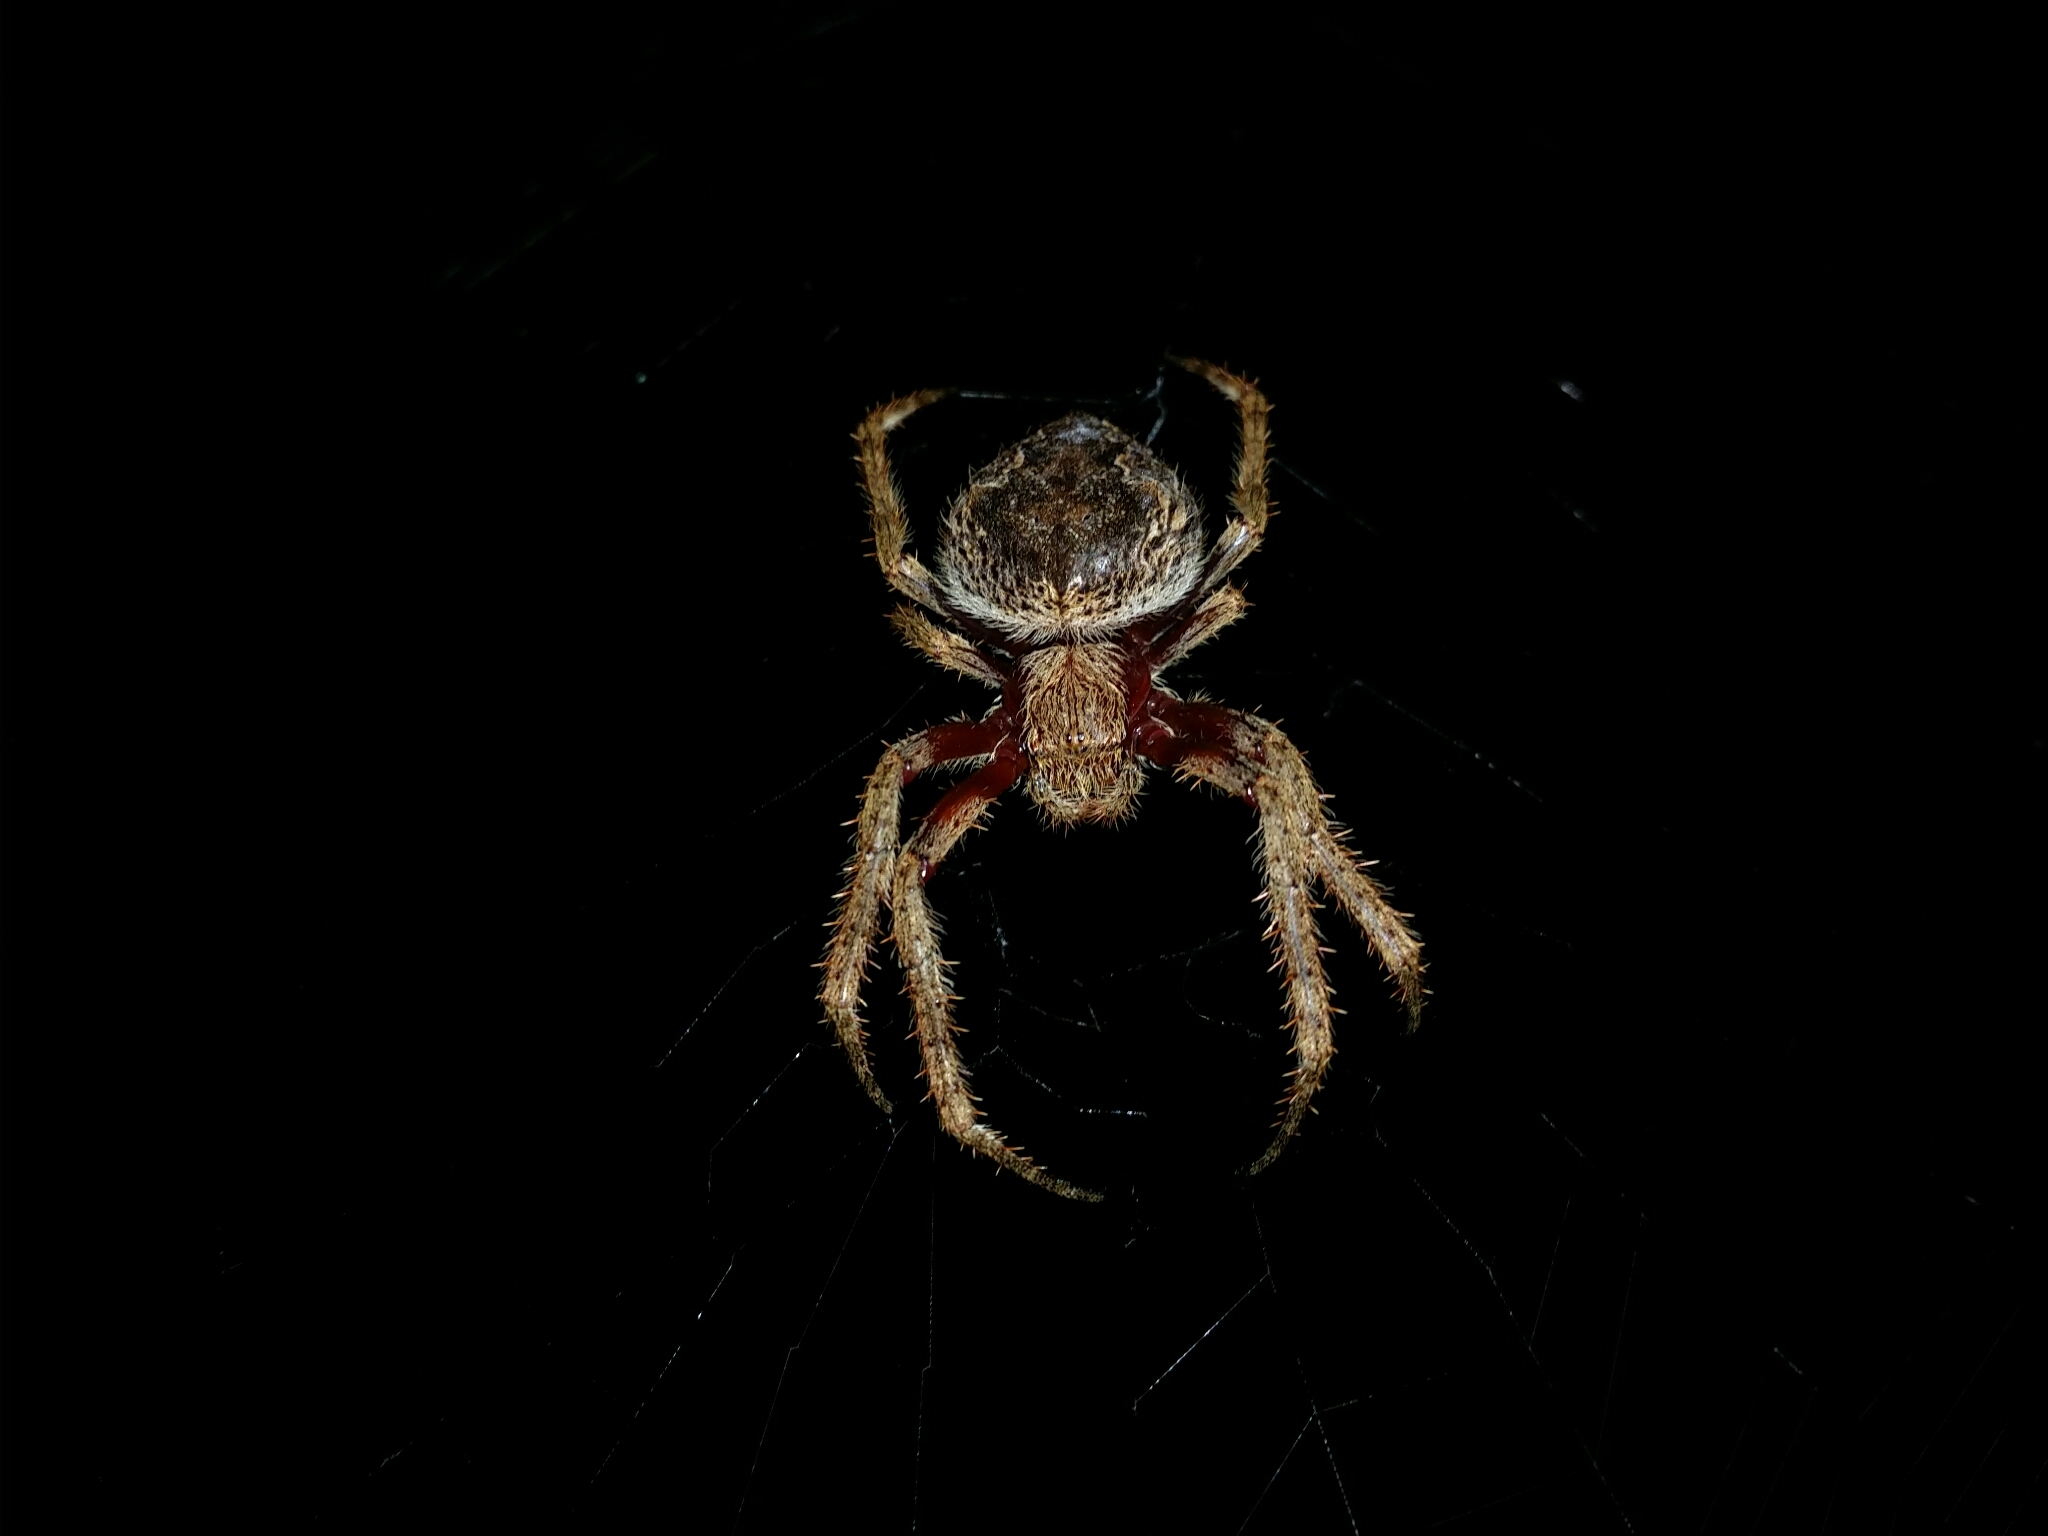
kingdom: Animalia
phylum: Arthropoda
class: Arachnida
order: Araneae
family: Araneidae
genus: Hortophora
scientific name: Hortophora biapicata
